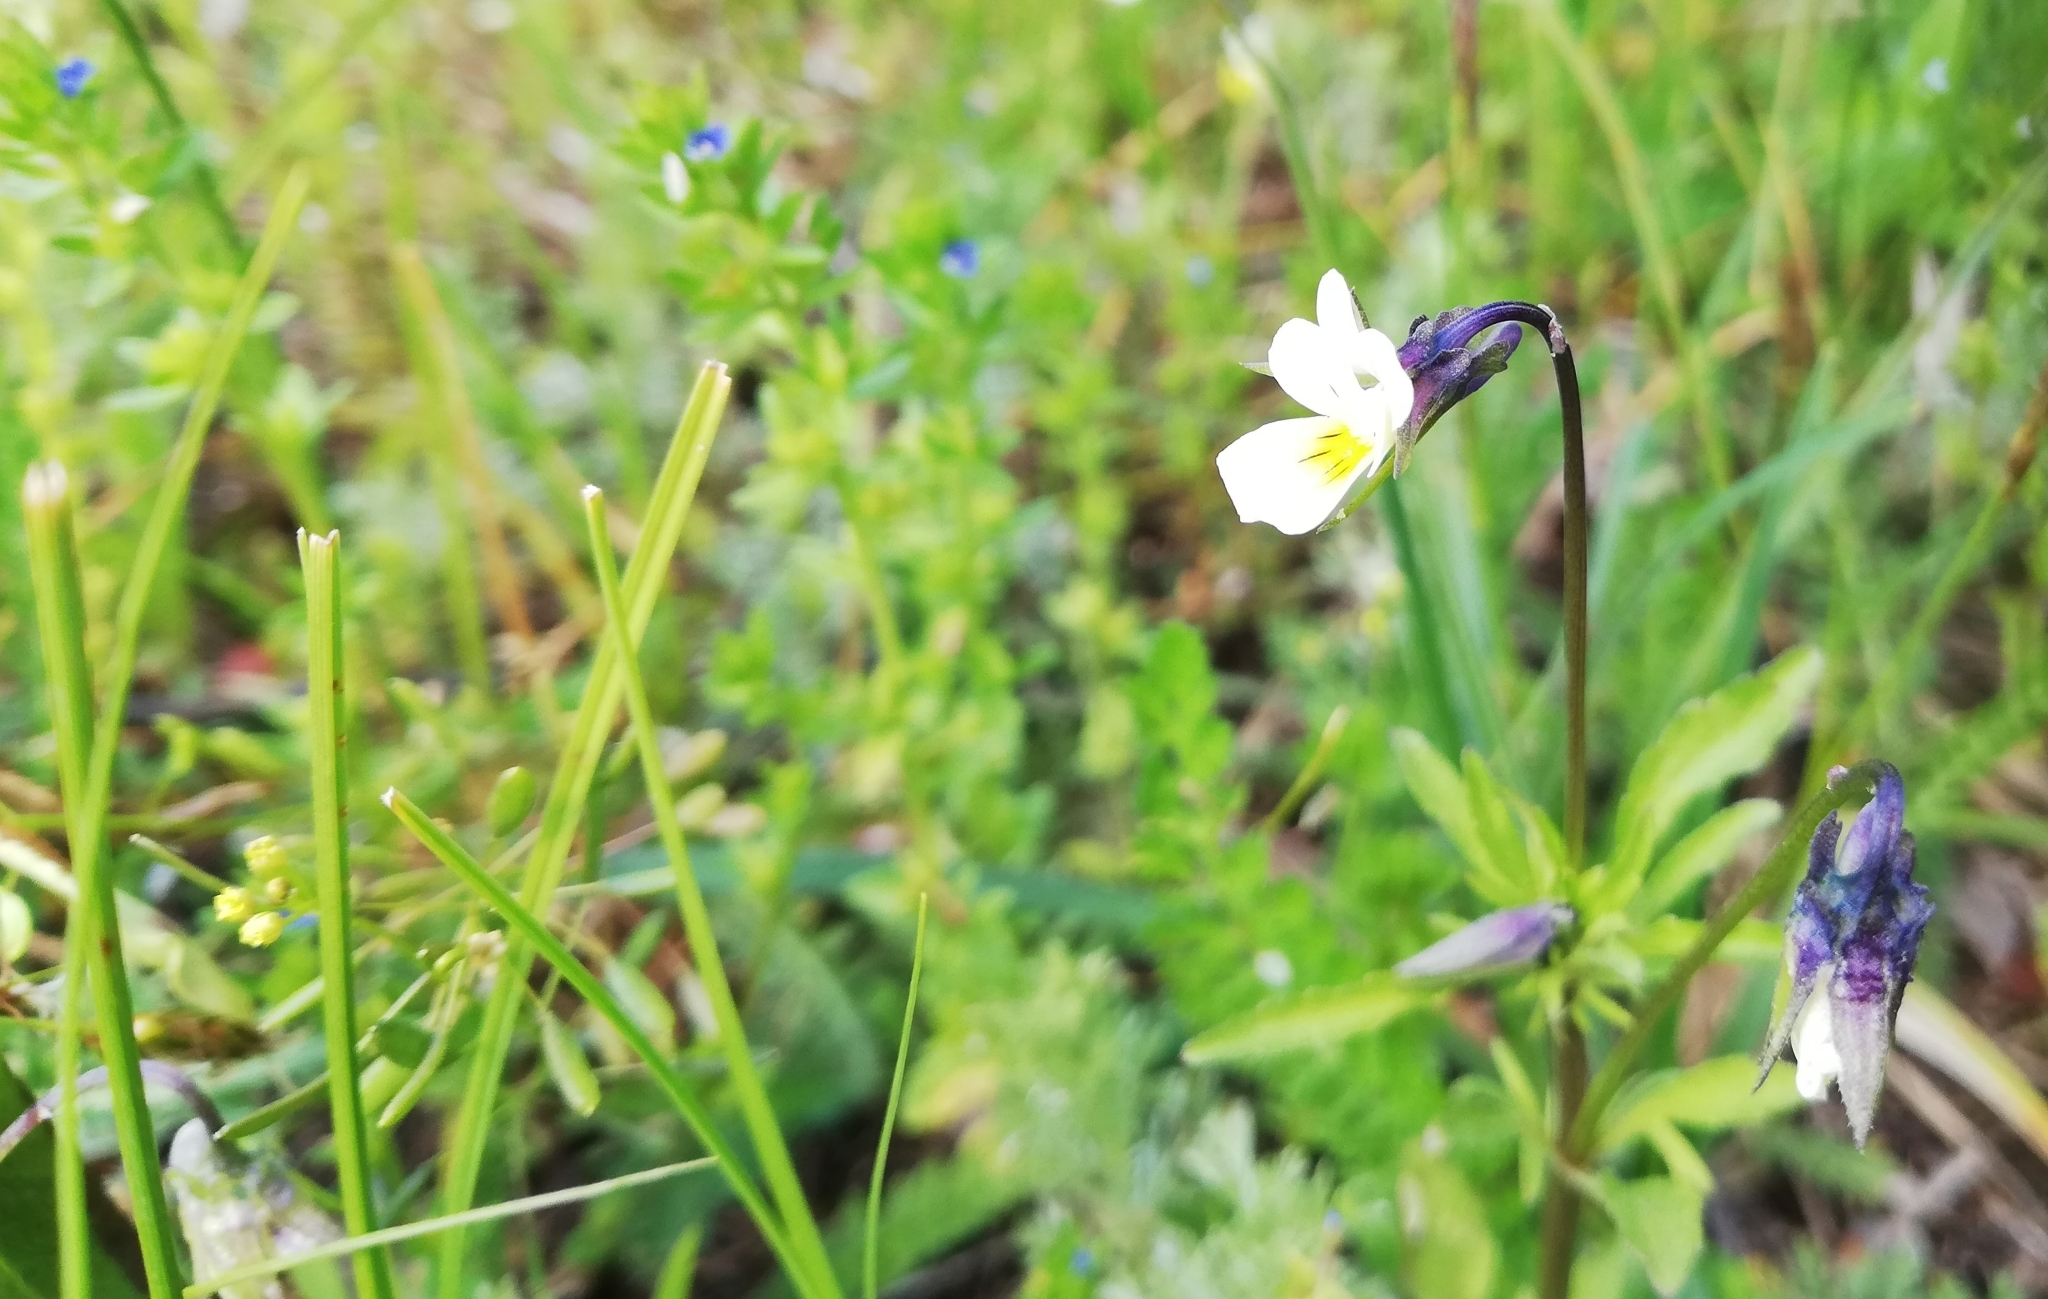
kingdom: Plantae
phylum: Tracheophyta
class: Magnoliopsida
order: Malpighiales
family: Violaceae
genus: Viola
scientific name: Viola arvensis
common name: Field pansy
